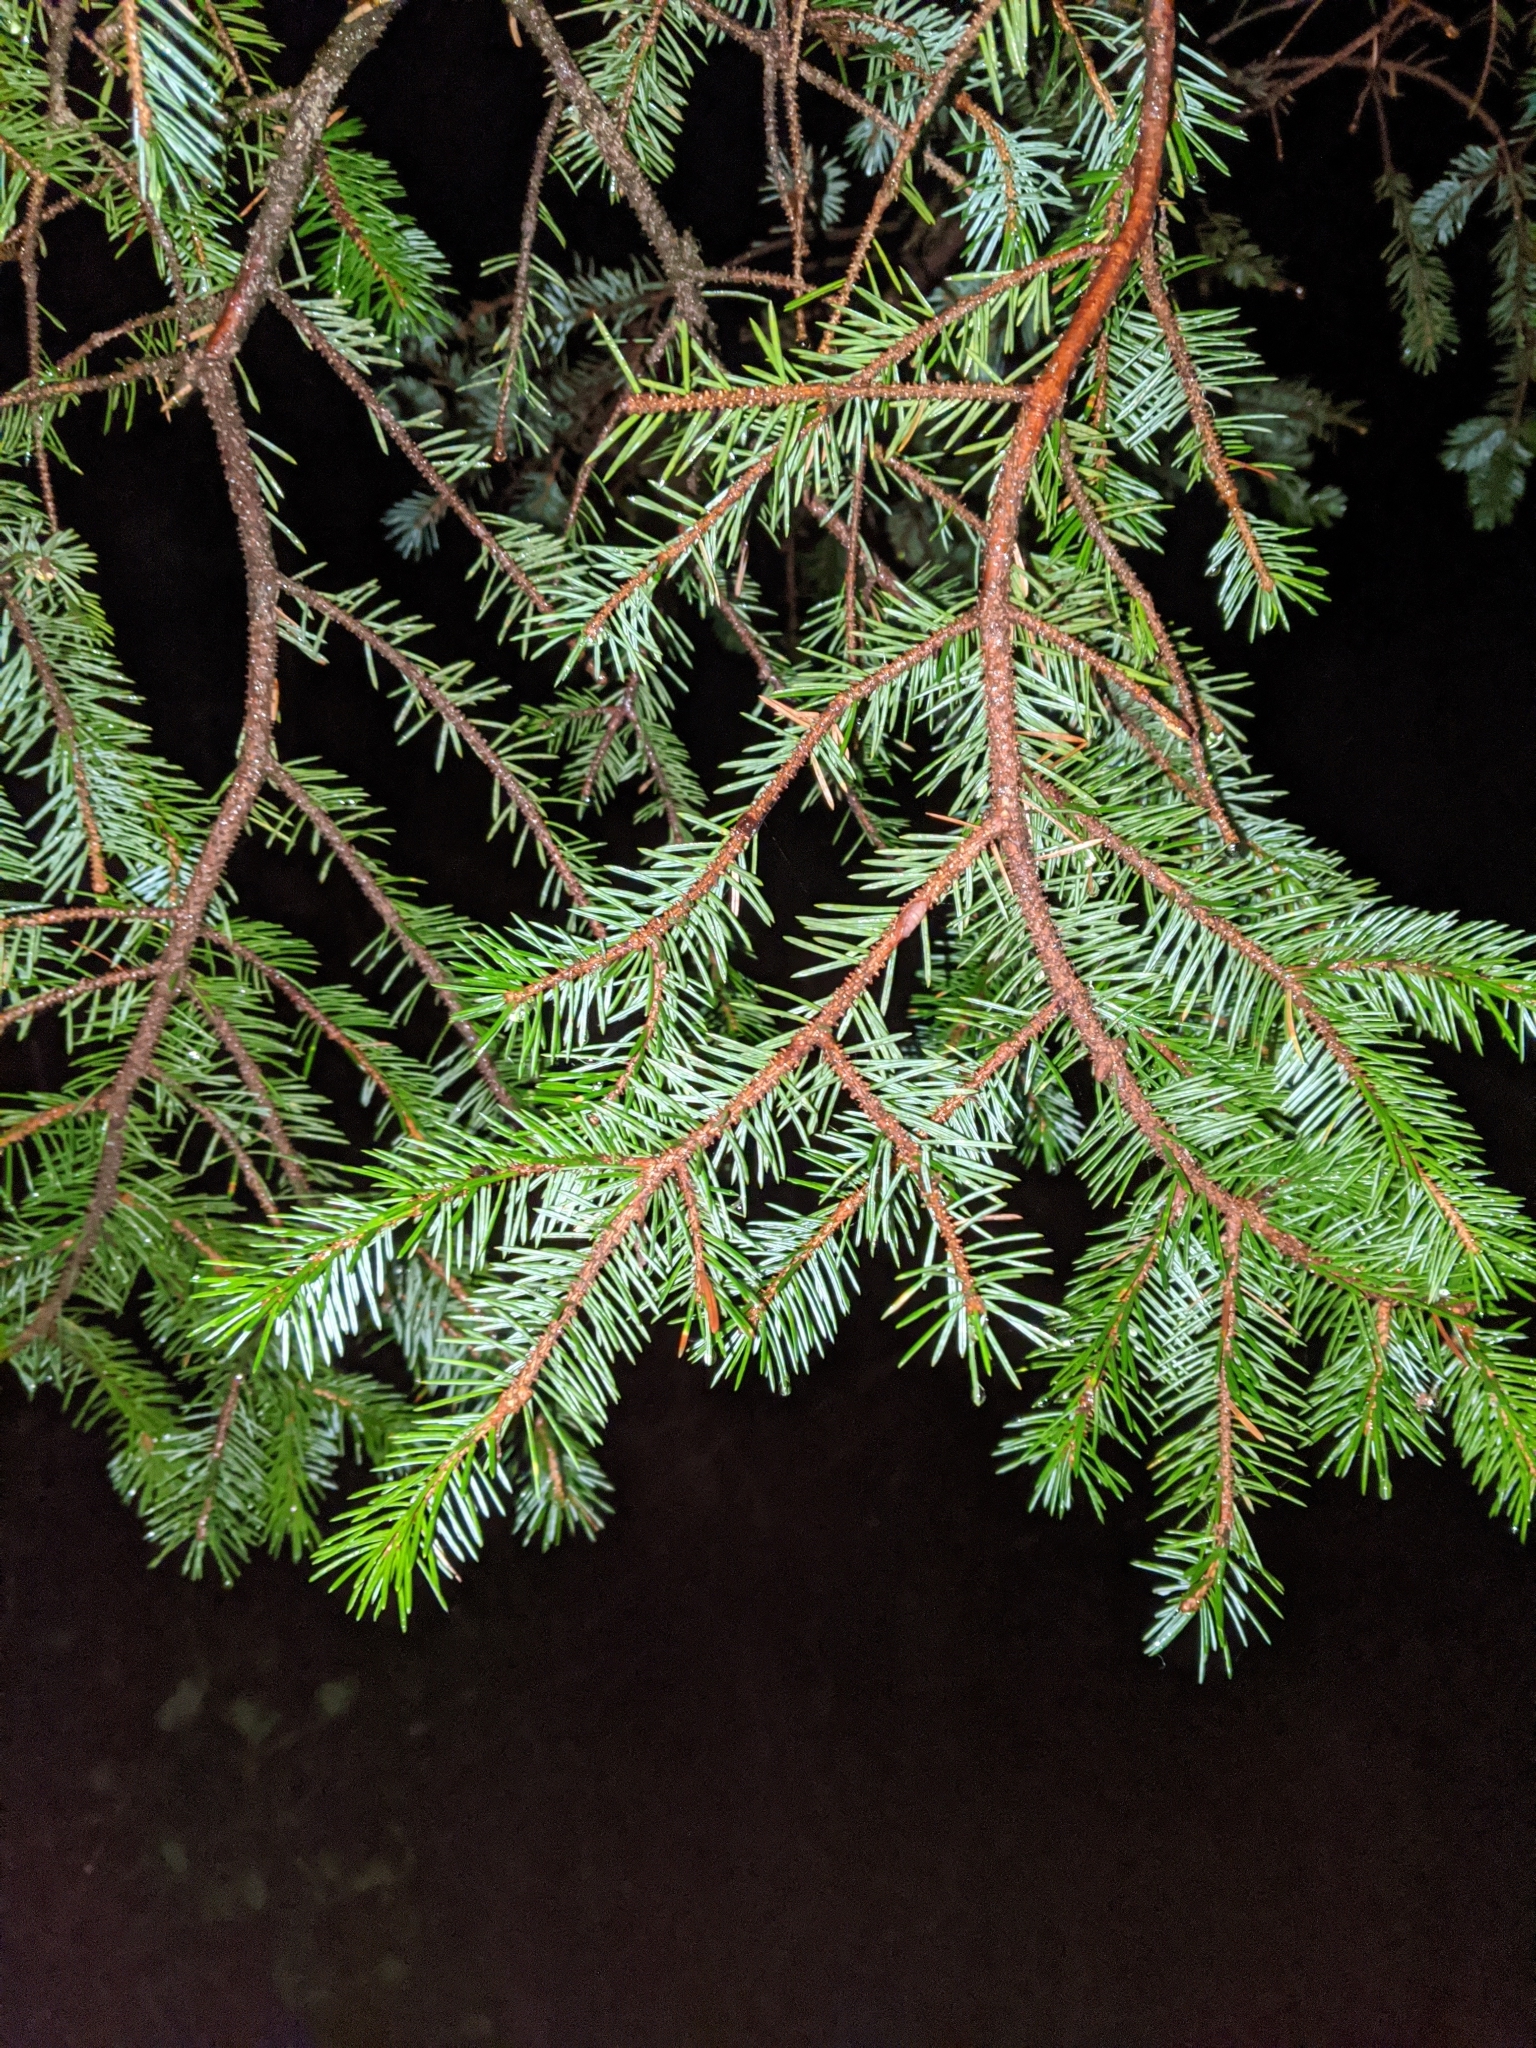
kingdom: Plantae
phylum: Tracheophyta
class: Pinopsida
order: Pinales
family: Pinaceae
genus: Picea
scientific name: Picea sitchensis
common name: Sitka spruce
